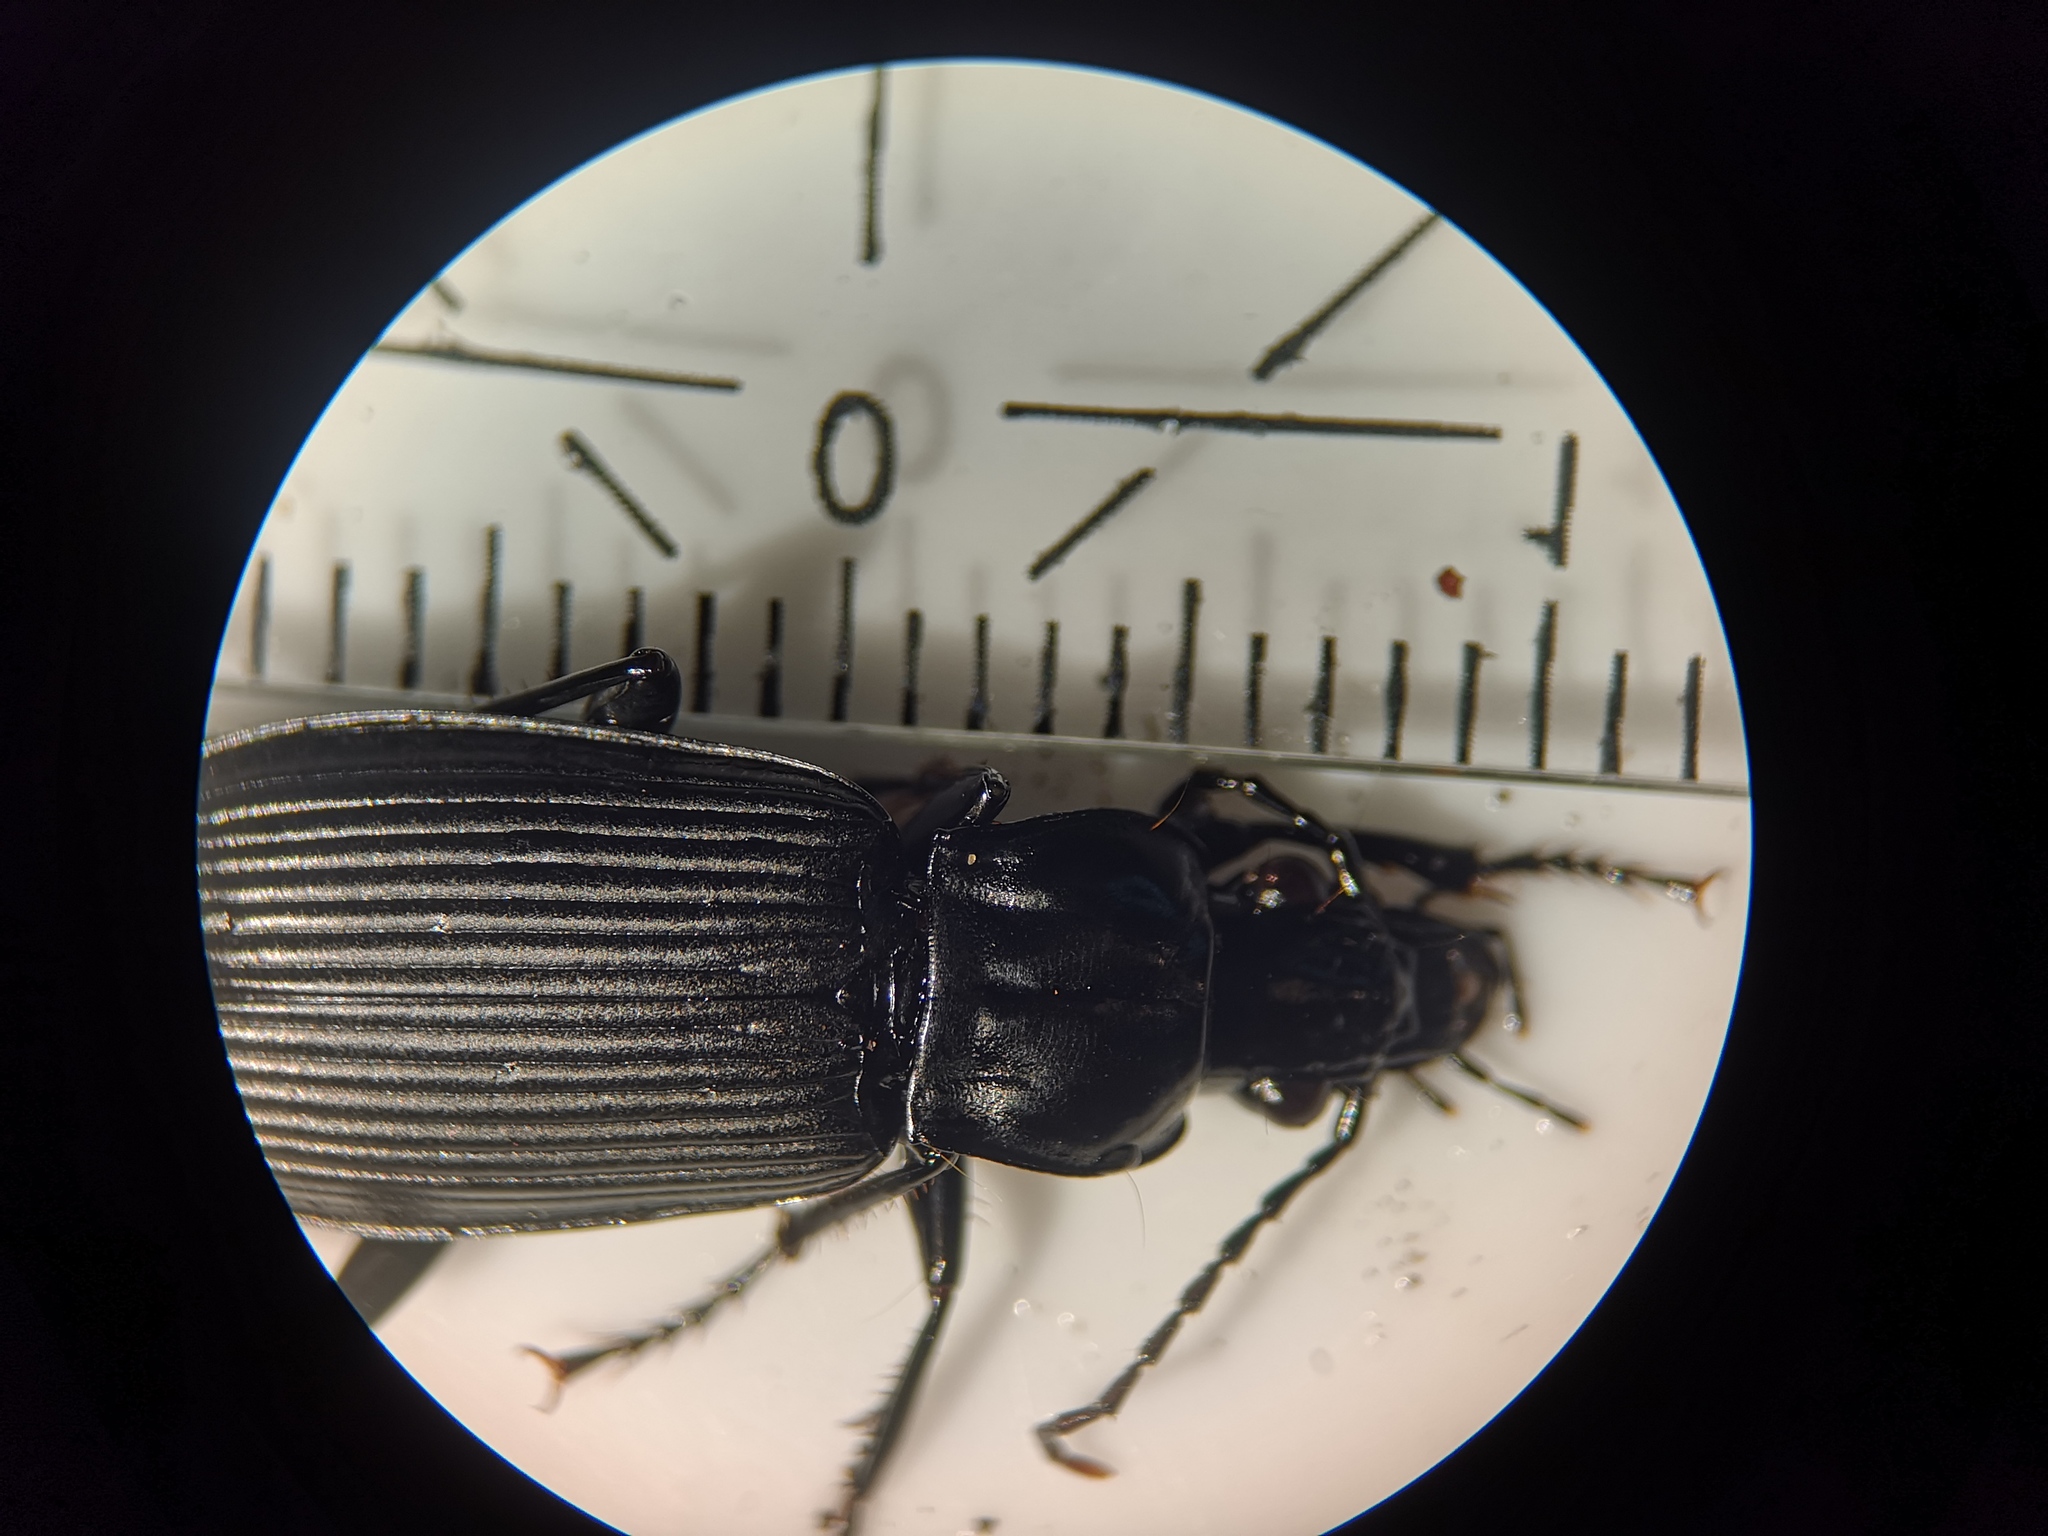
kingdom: Animalia
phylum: Arthropoda
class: Insecta
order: Coleoptera
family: Carabidae
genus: Pterostichus
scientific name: Pterostichus niger
